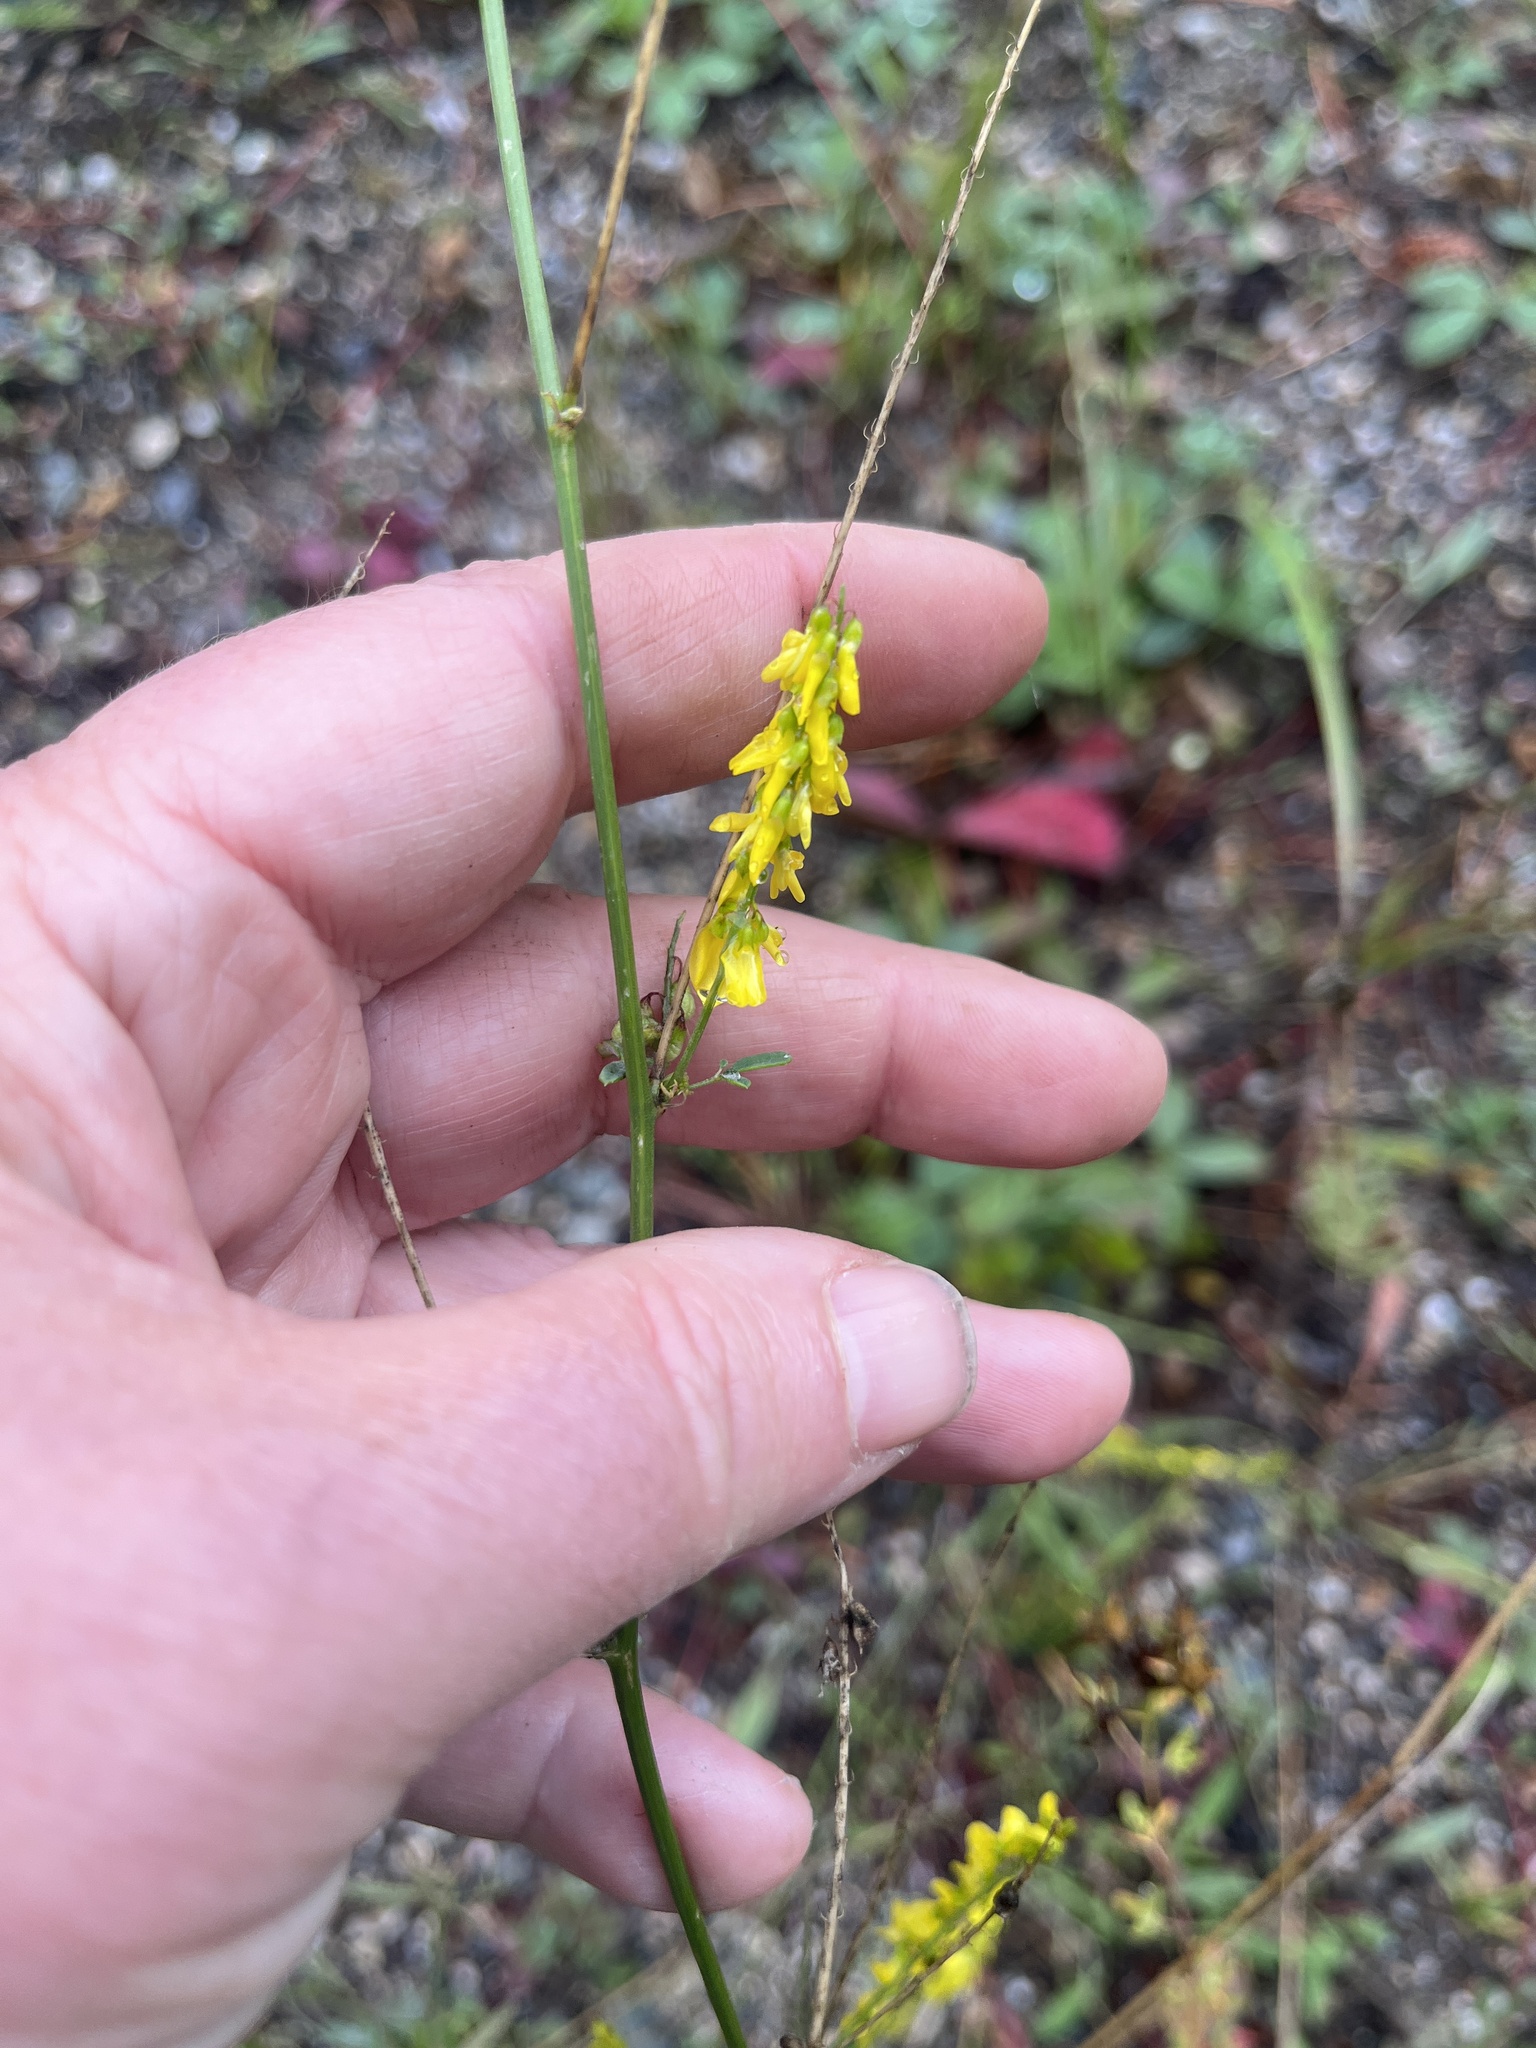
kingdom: Plantae
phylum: Tracheophyta
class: Magnoliopsida
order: Fabales
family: Fabaceae
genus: Melilotus
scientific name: Melilotus officinalis
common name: Sweetclover
